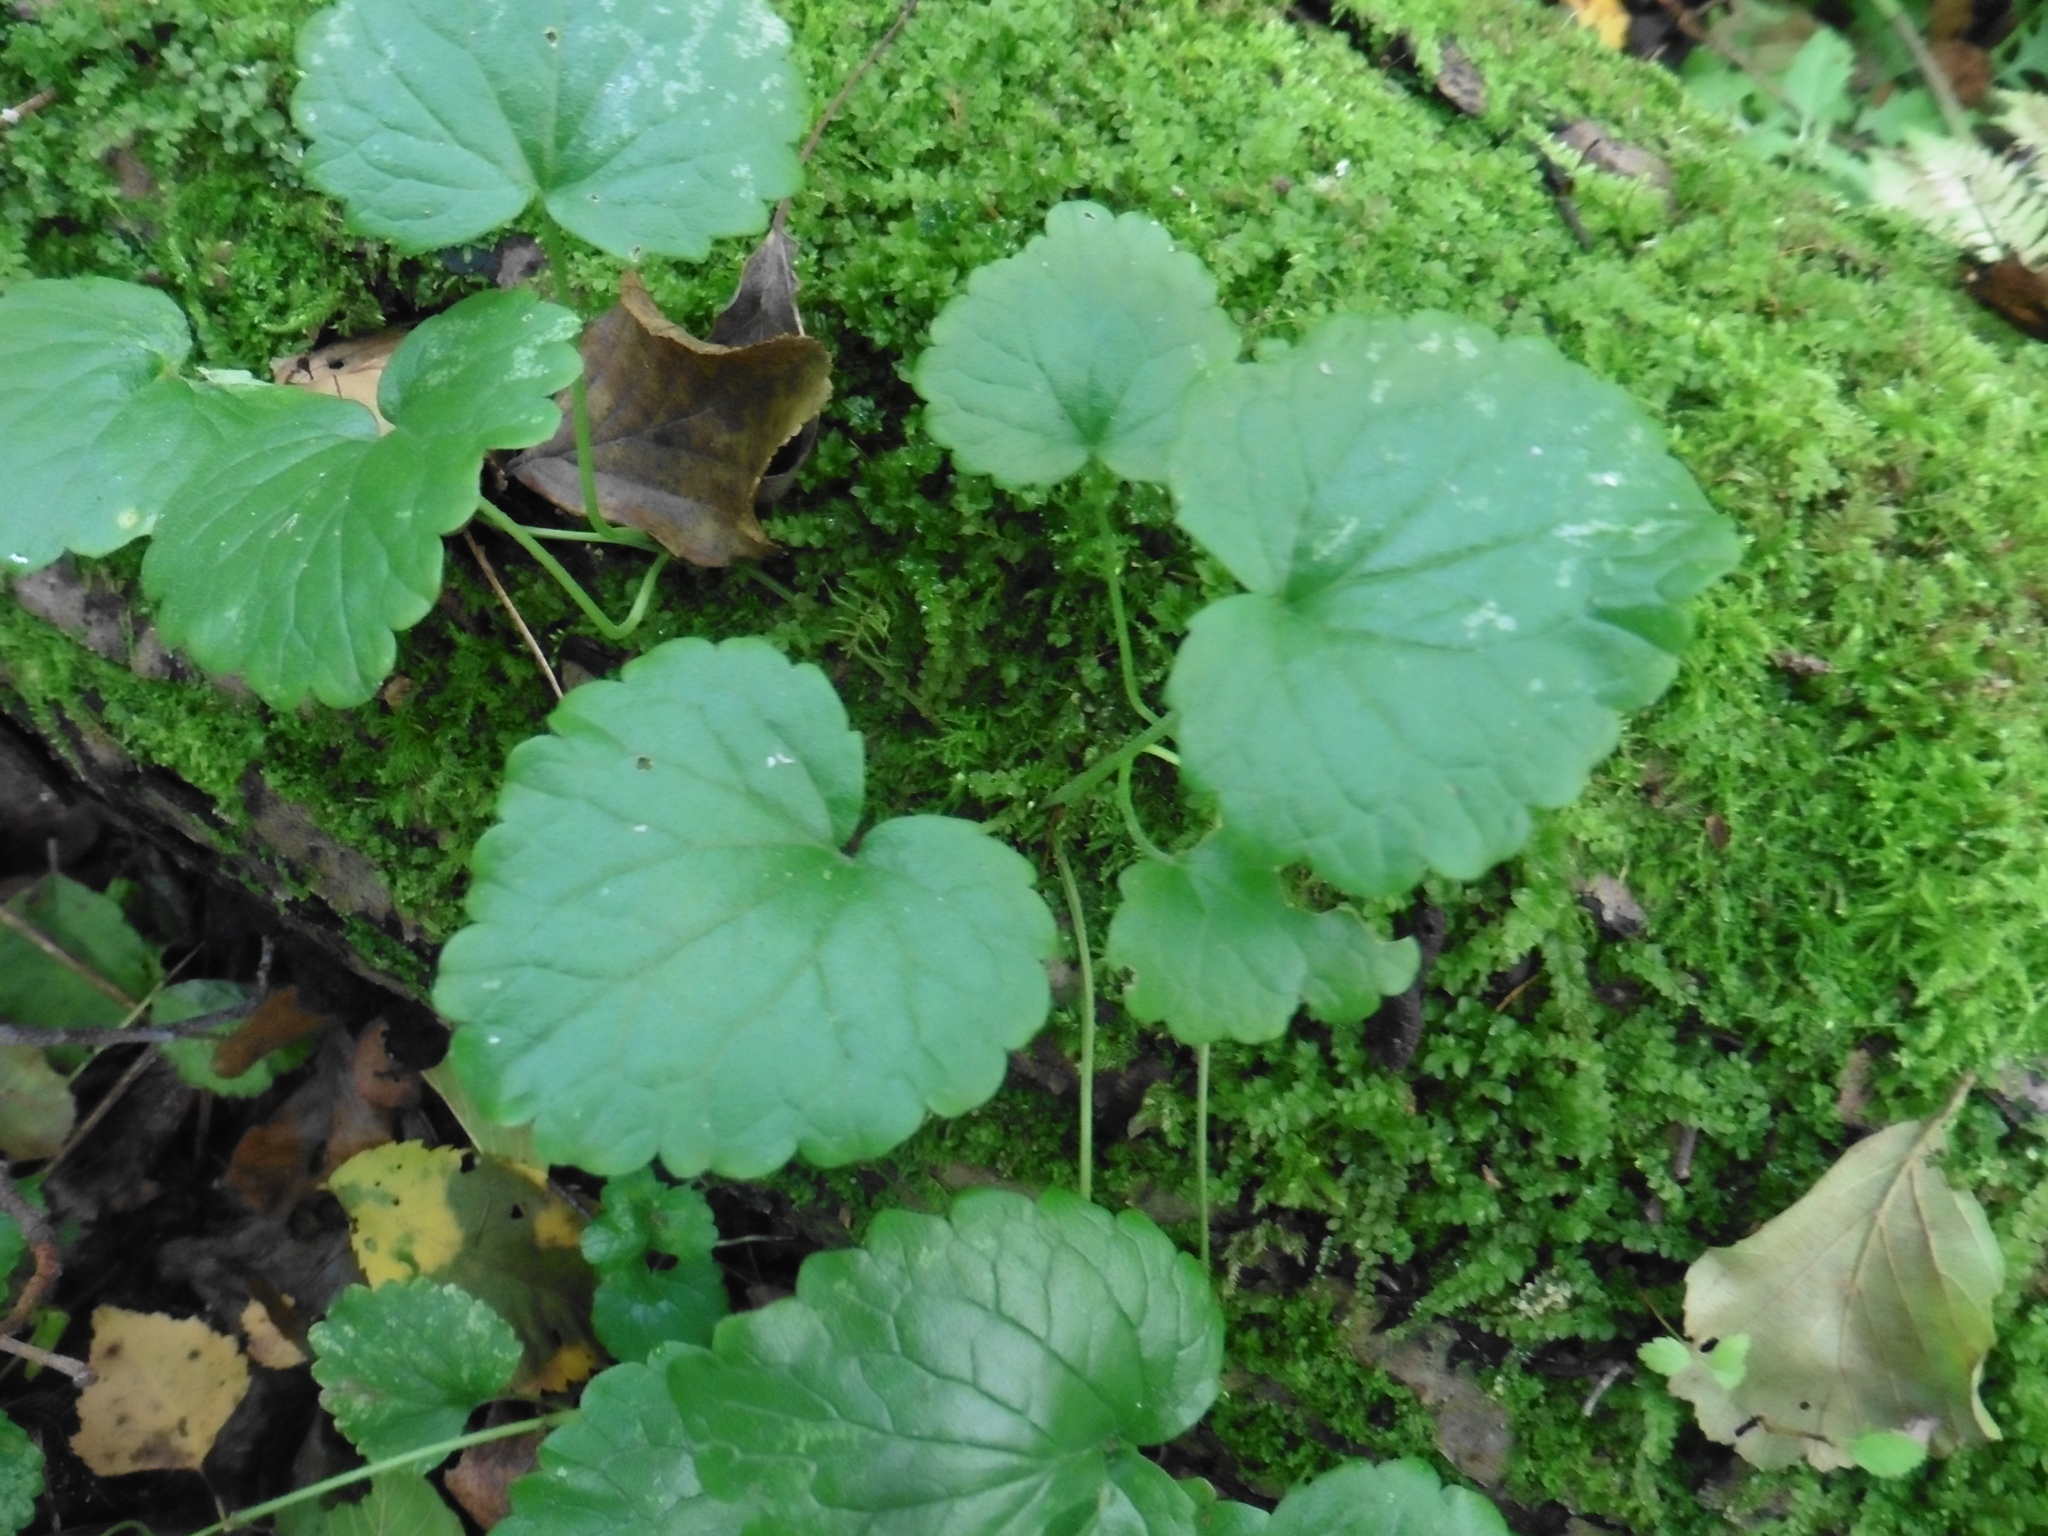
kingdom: Plantae
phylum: Tracheophyta
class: Magnoliopsida
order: Lamiales
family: Lamiaceae
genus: Glechoma
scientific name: Glechoma hederacea
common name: Ground ivy
